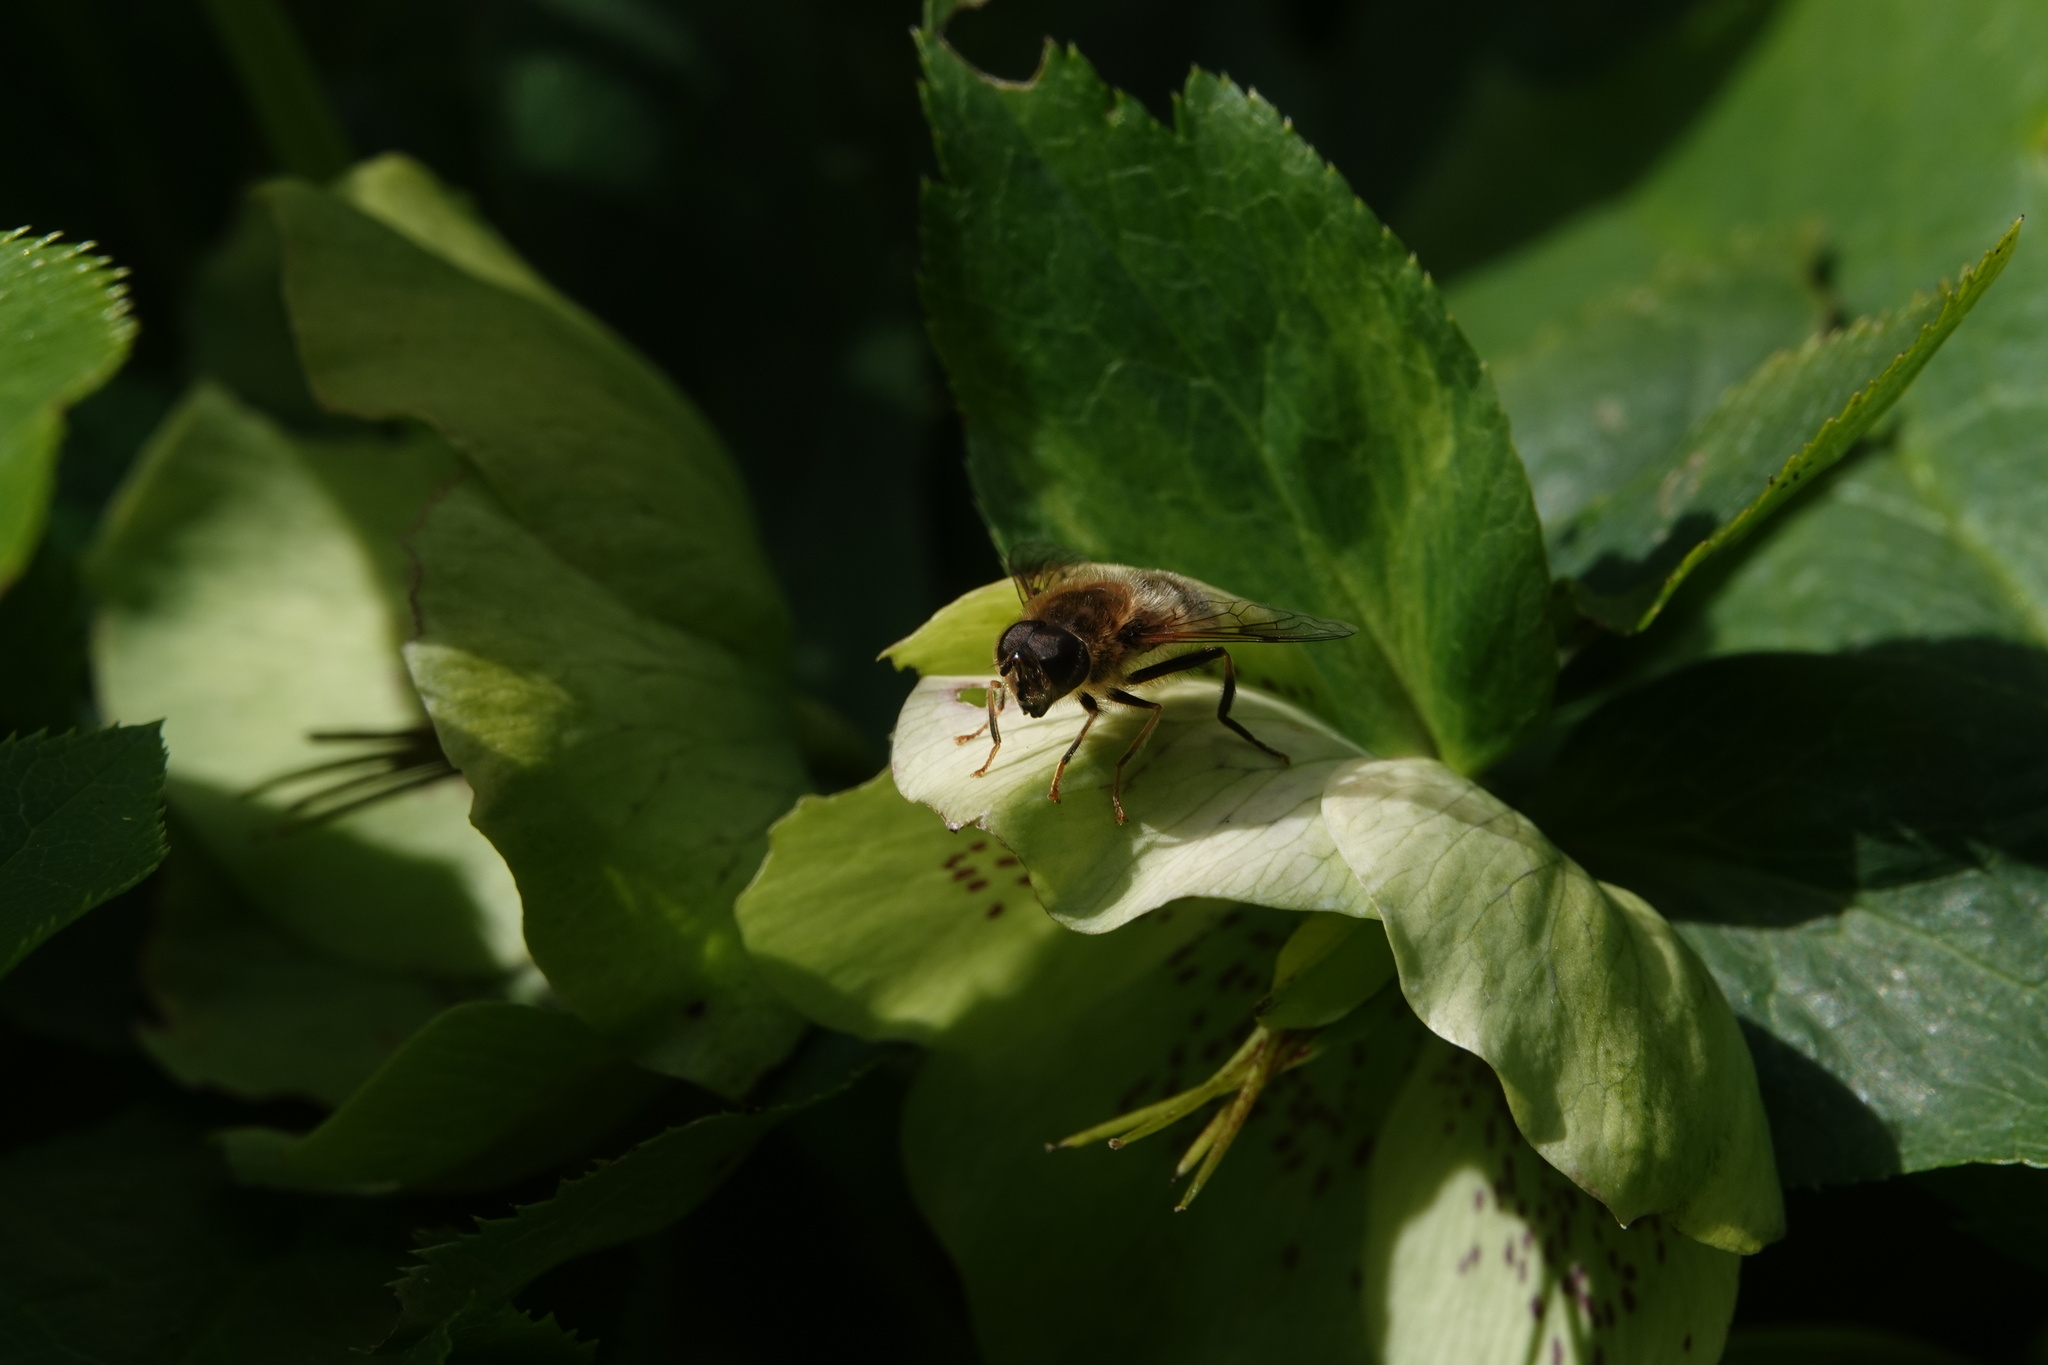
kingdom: Animalia
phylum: Arthropoda
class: Insecta
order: Diptera
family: Syrphidae
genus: Eristalis
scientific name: Eristalis pertinax
